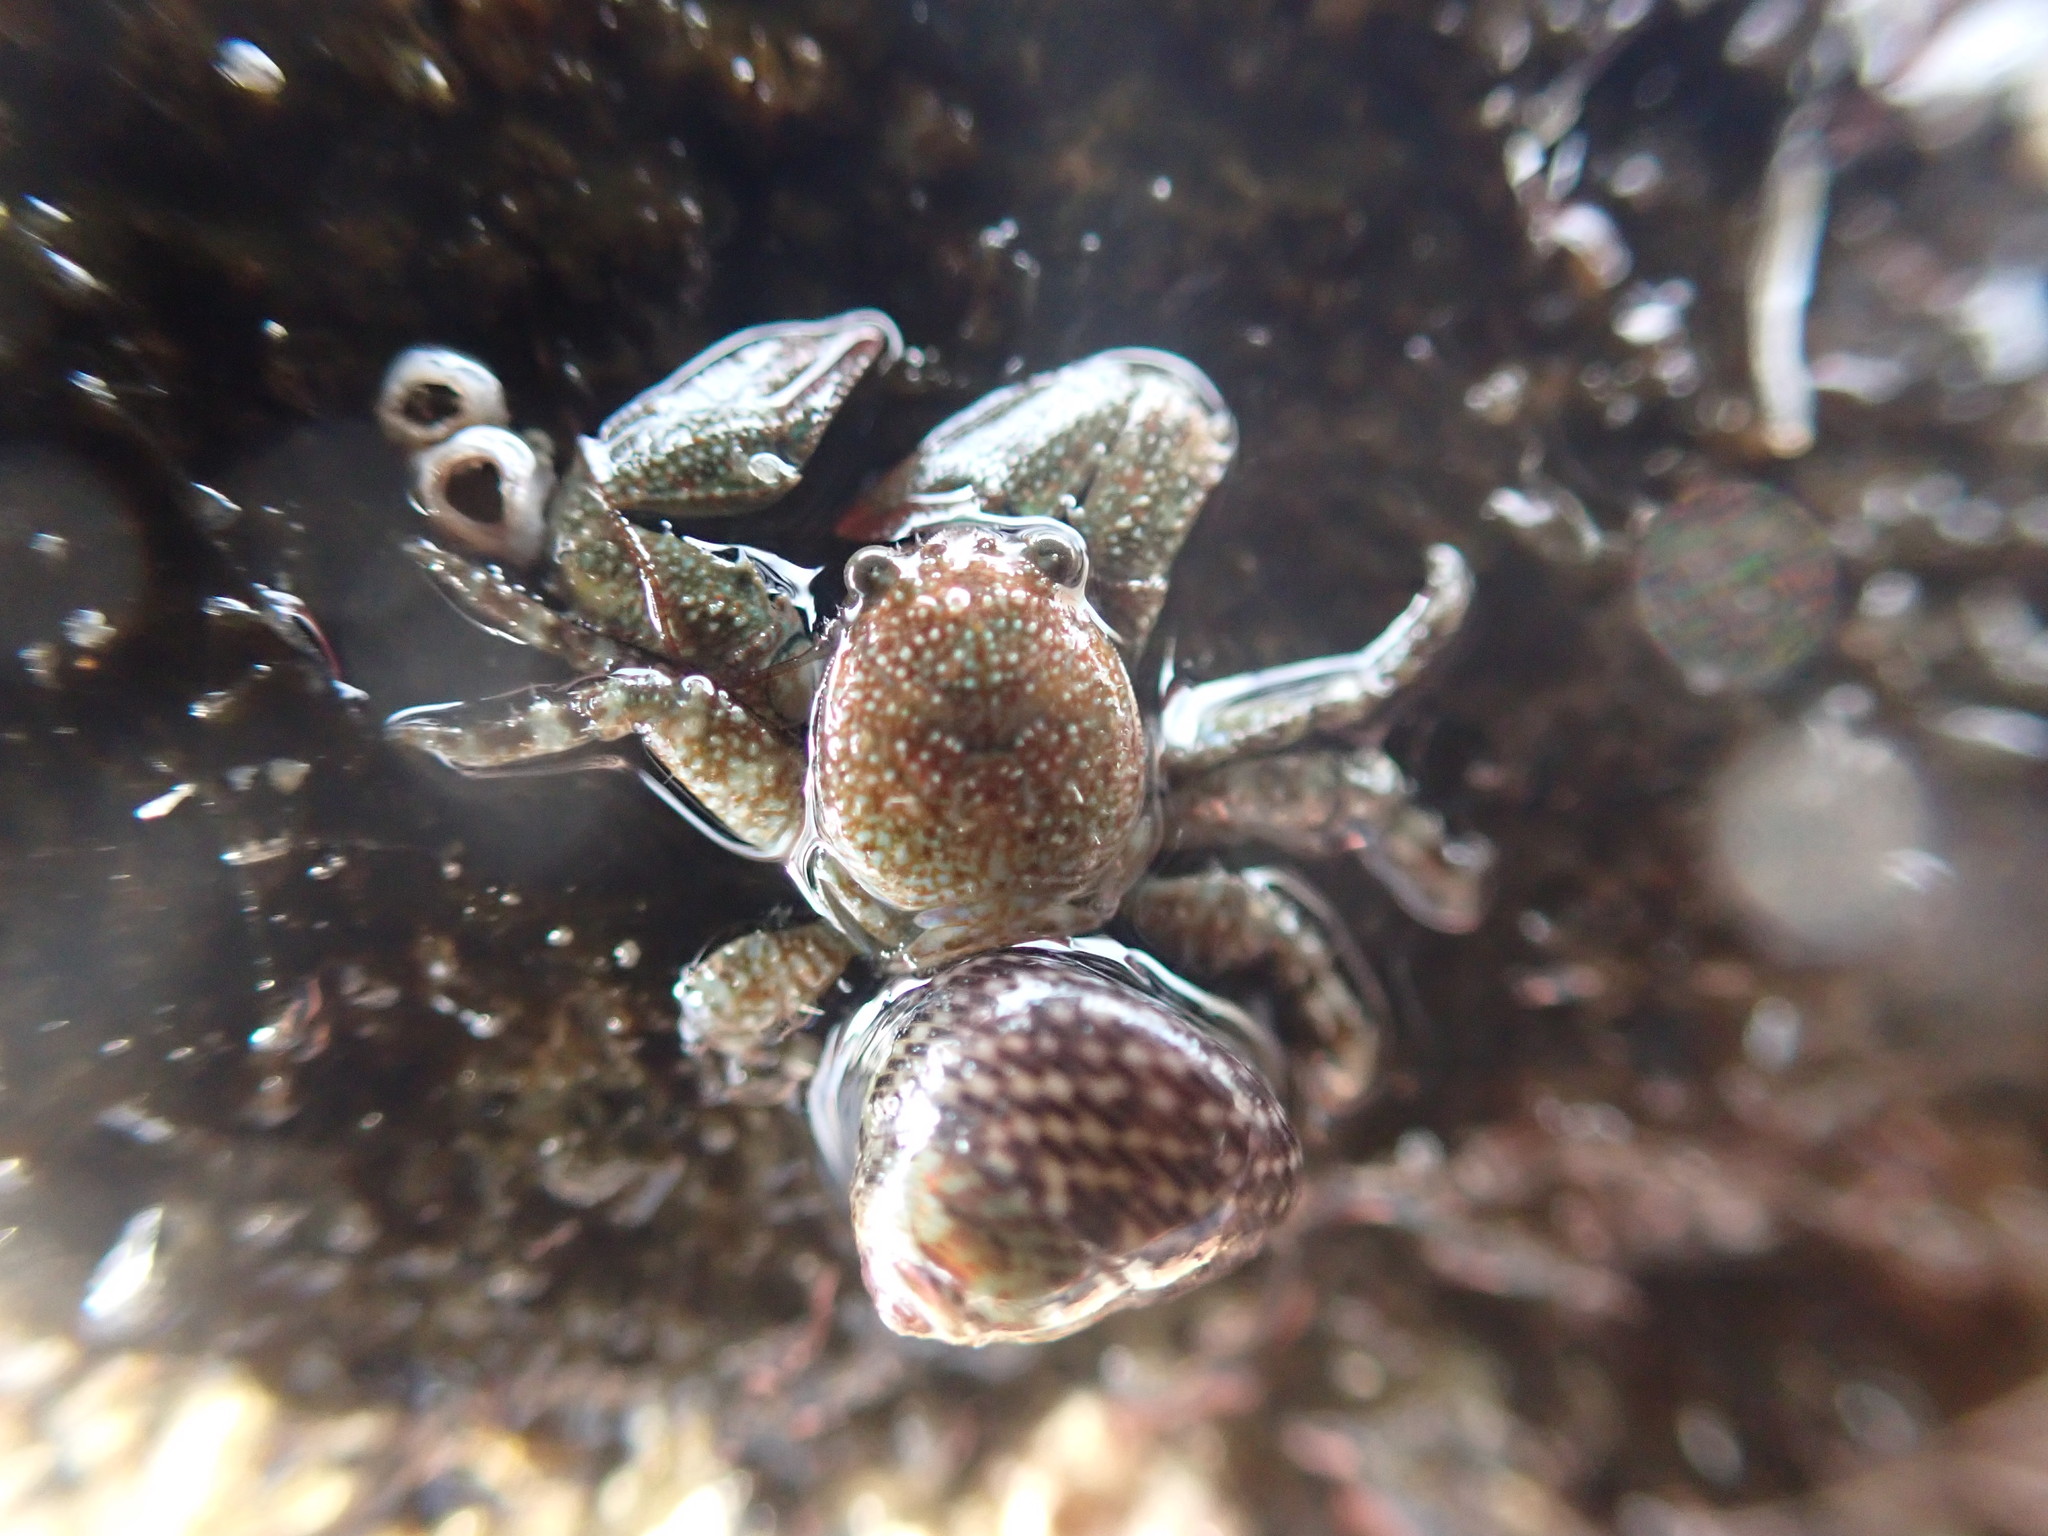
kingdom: Animalia
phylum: Arthropoda
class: Malacostraca
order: Decapoda
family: Porcellanidae
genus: Petrolisthes
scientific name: Petrolisthes elongatus
